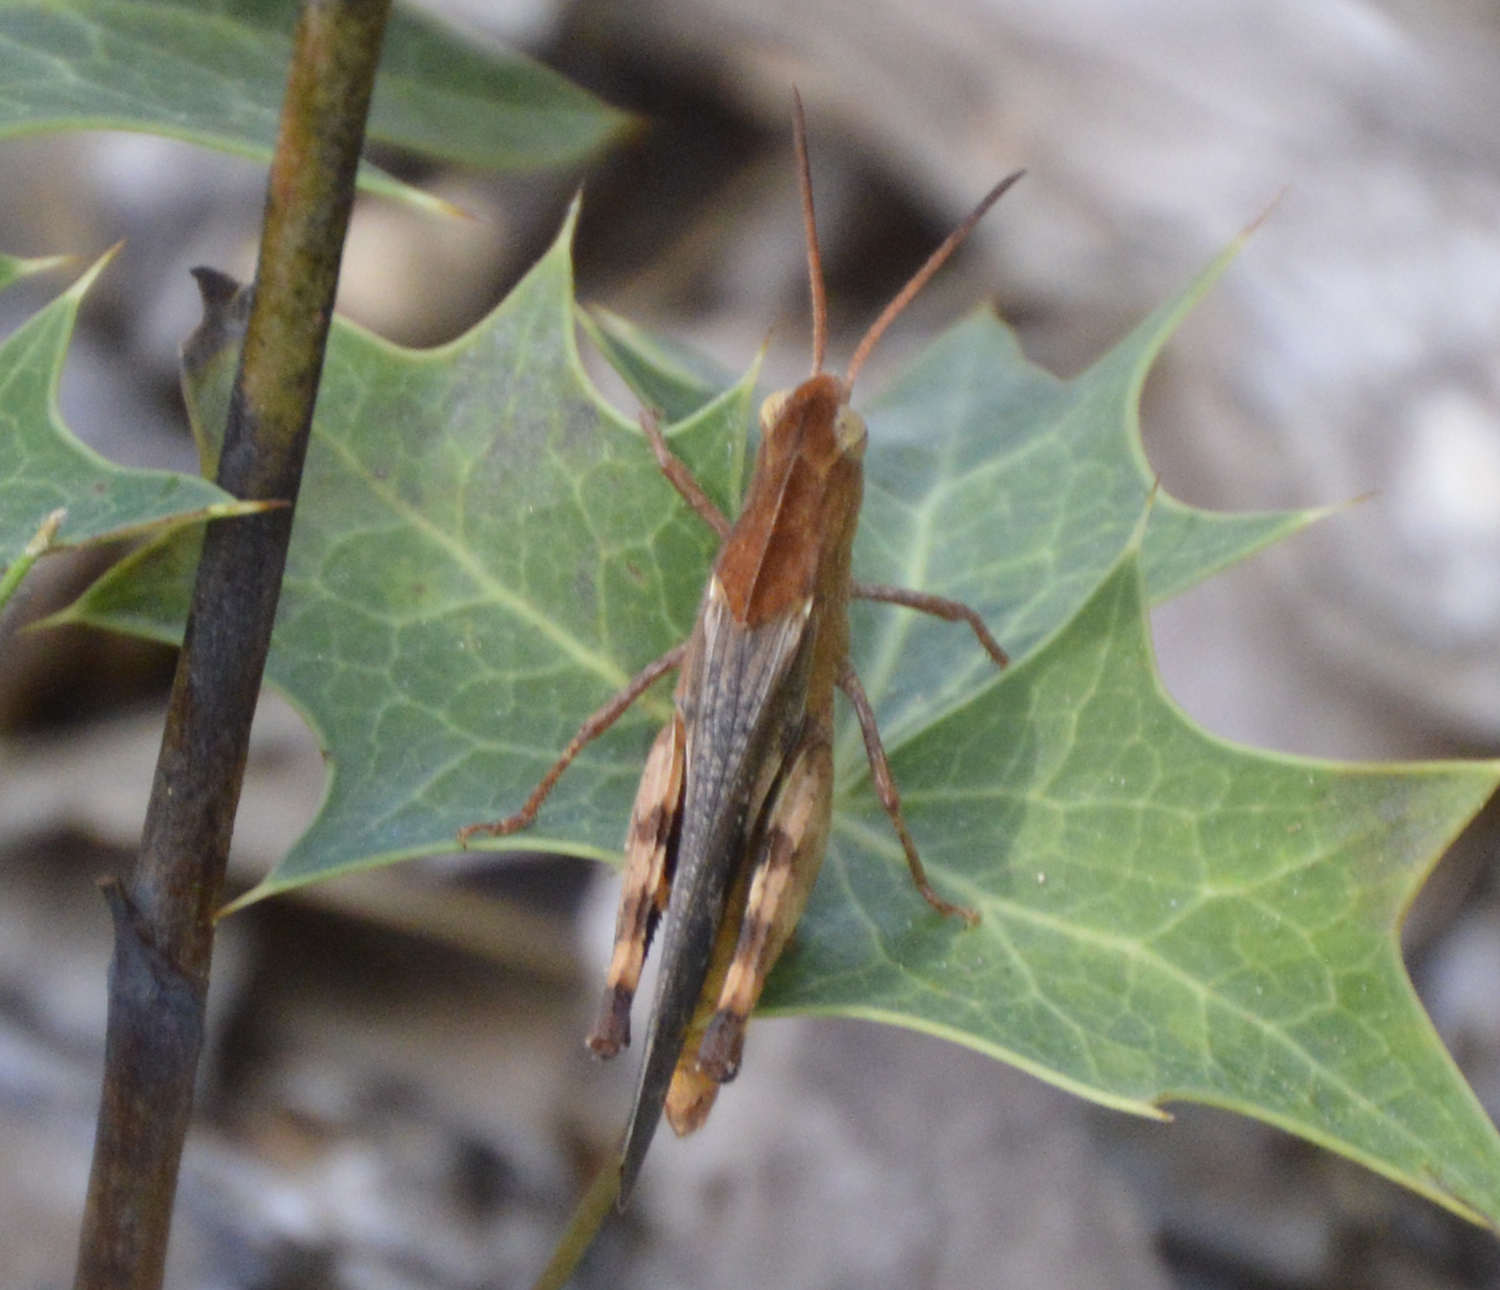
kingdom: Animalia
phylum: Arthropoda
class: Insecta
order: Orthoptera
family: Acrididae
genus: Chortophaga
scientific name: Chortophaga viridifasciata
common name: Green-striped grasshopper
